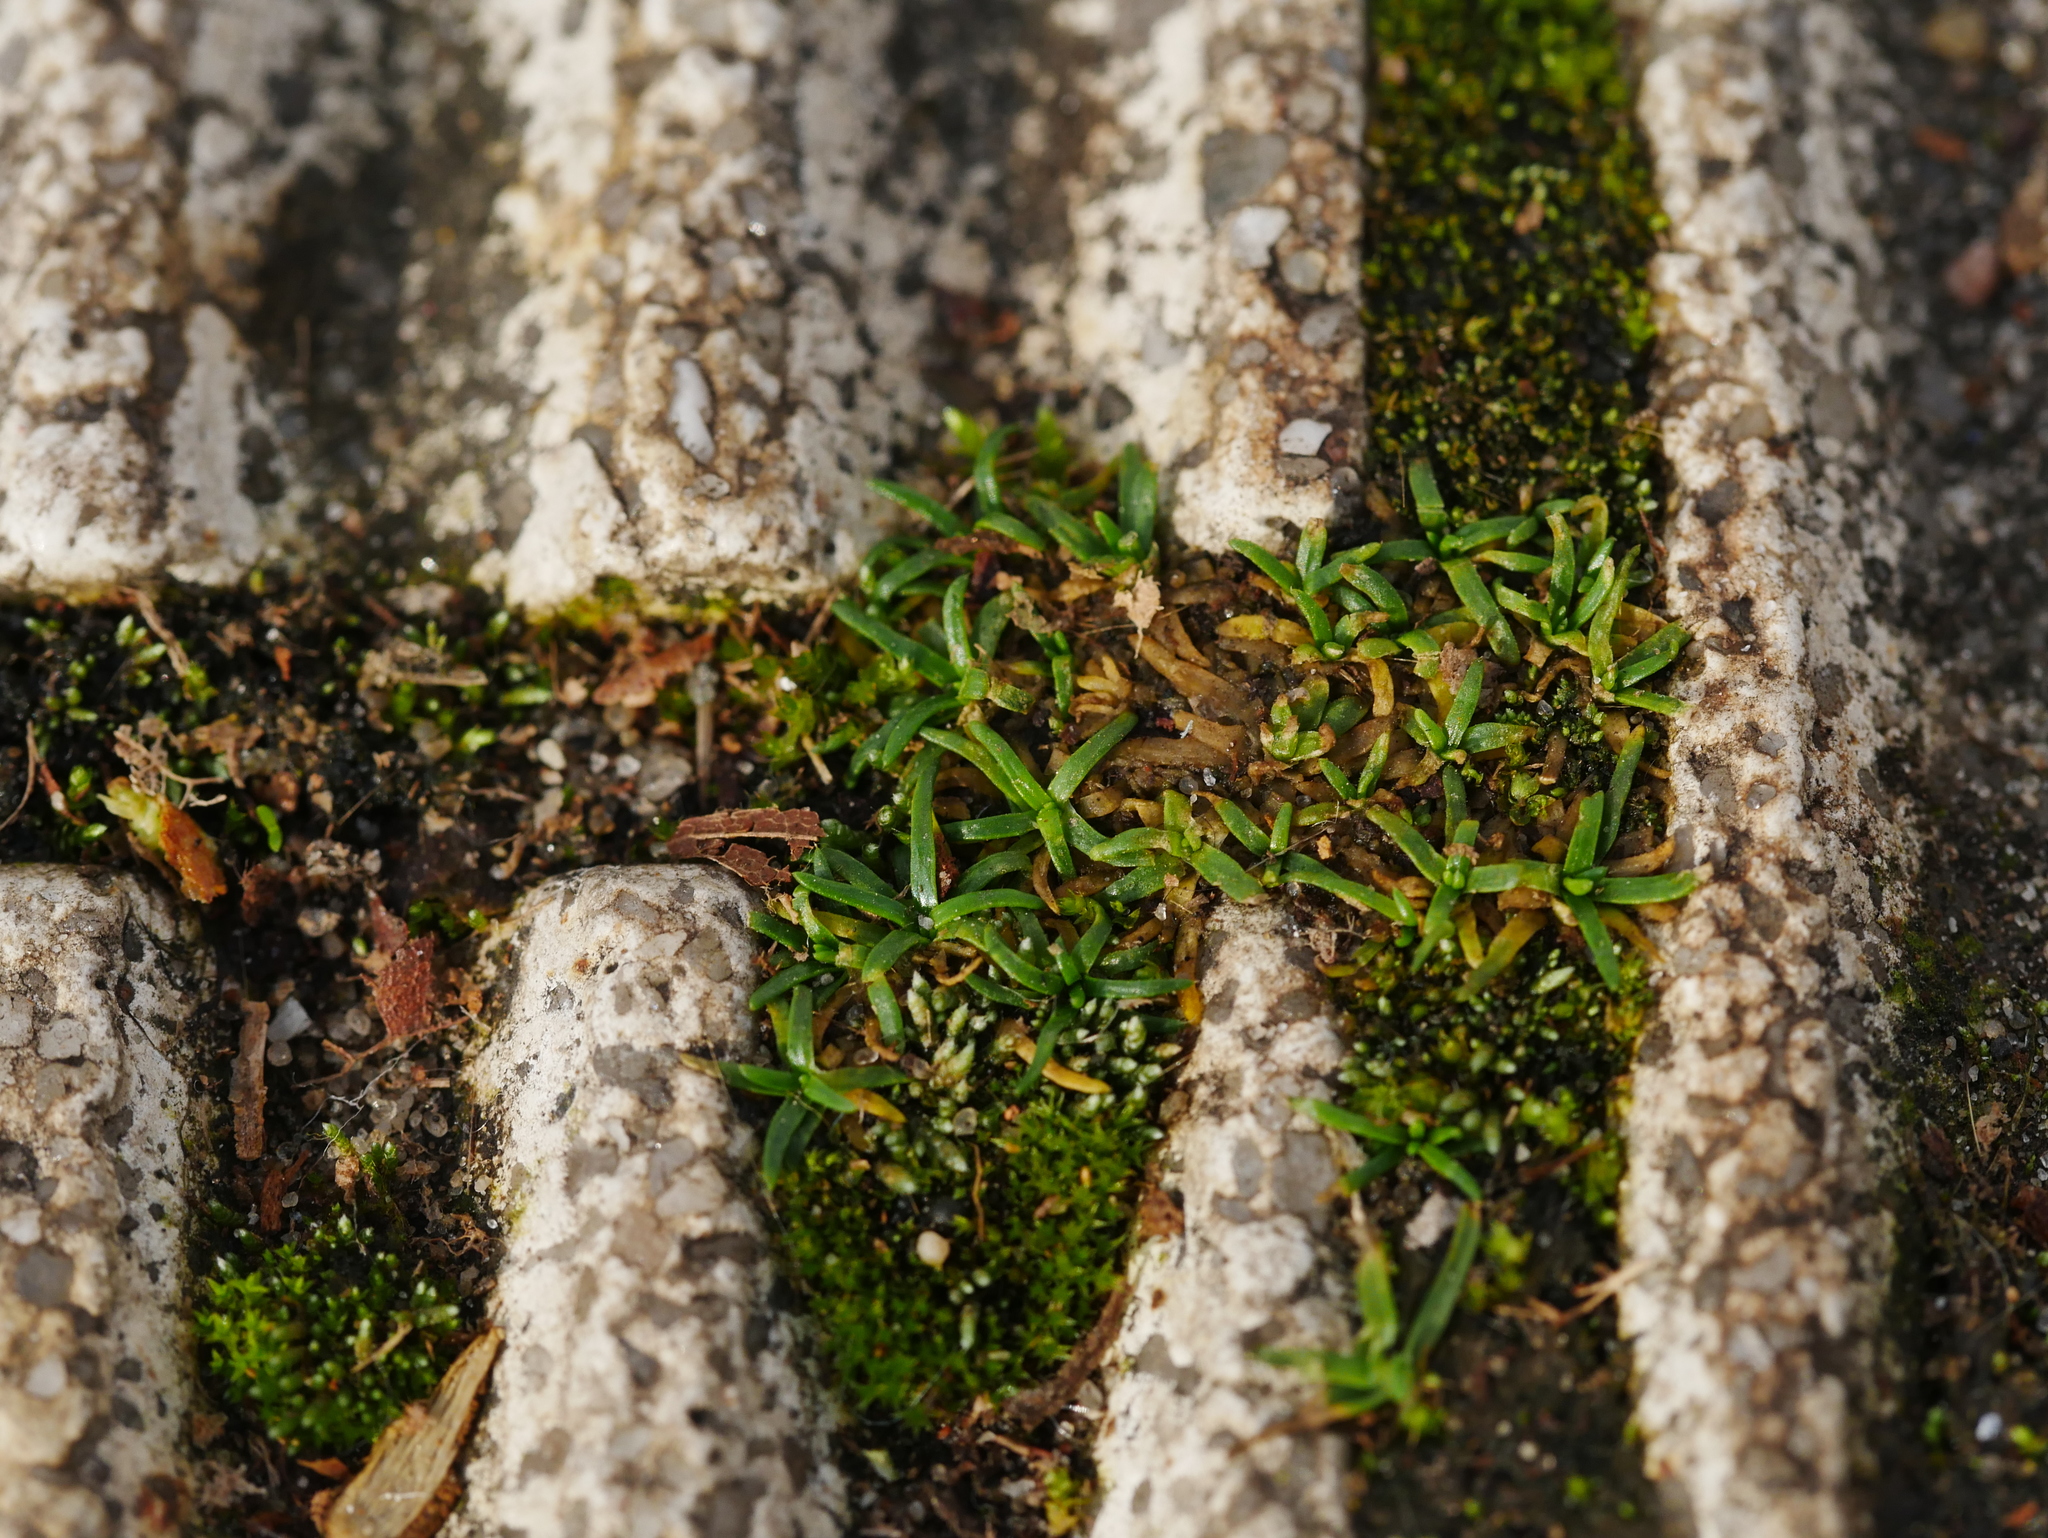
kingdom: Plantae
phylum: Tracheophyta
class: Magnoliopsida
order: Caryophyllales
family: Caryophyllaceae
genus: Sagina
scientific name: Sagina procumbens
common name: Procumbent pearlwort
